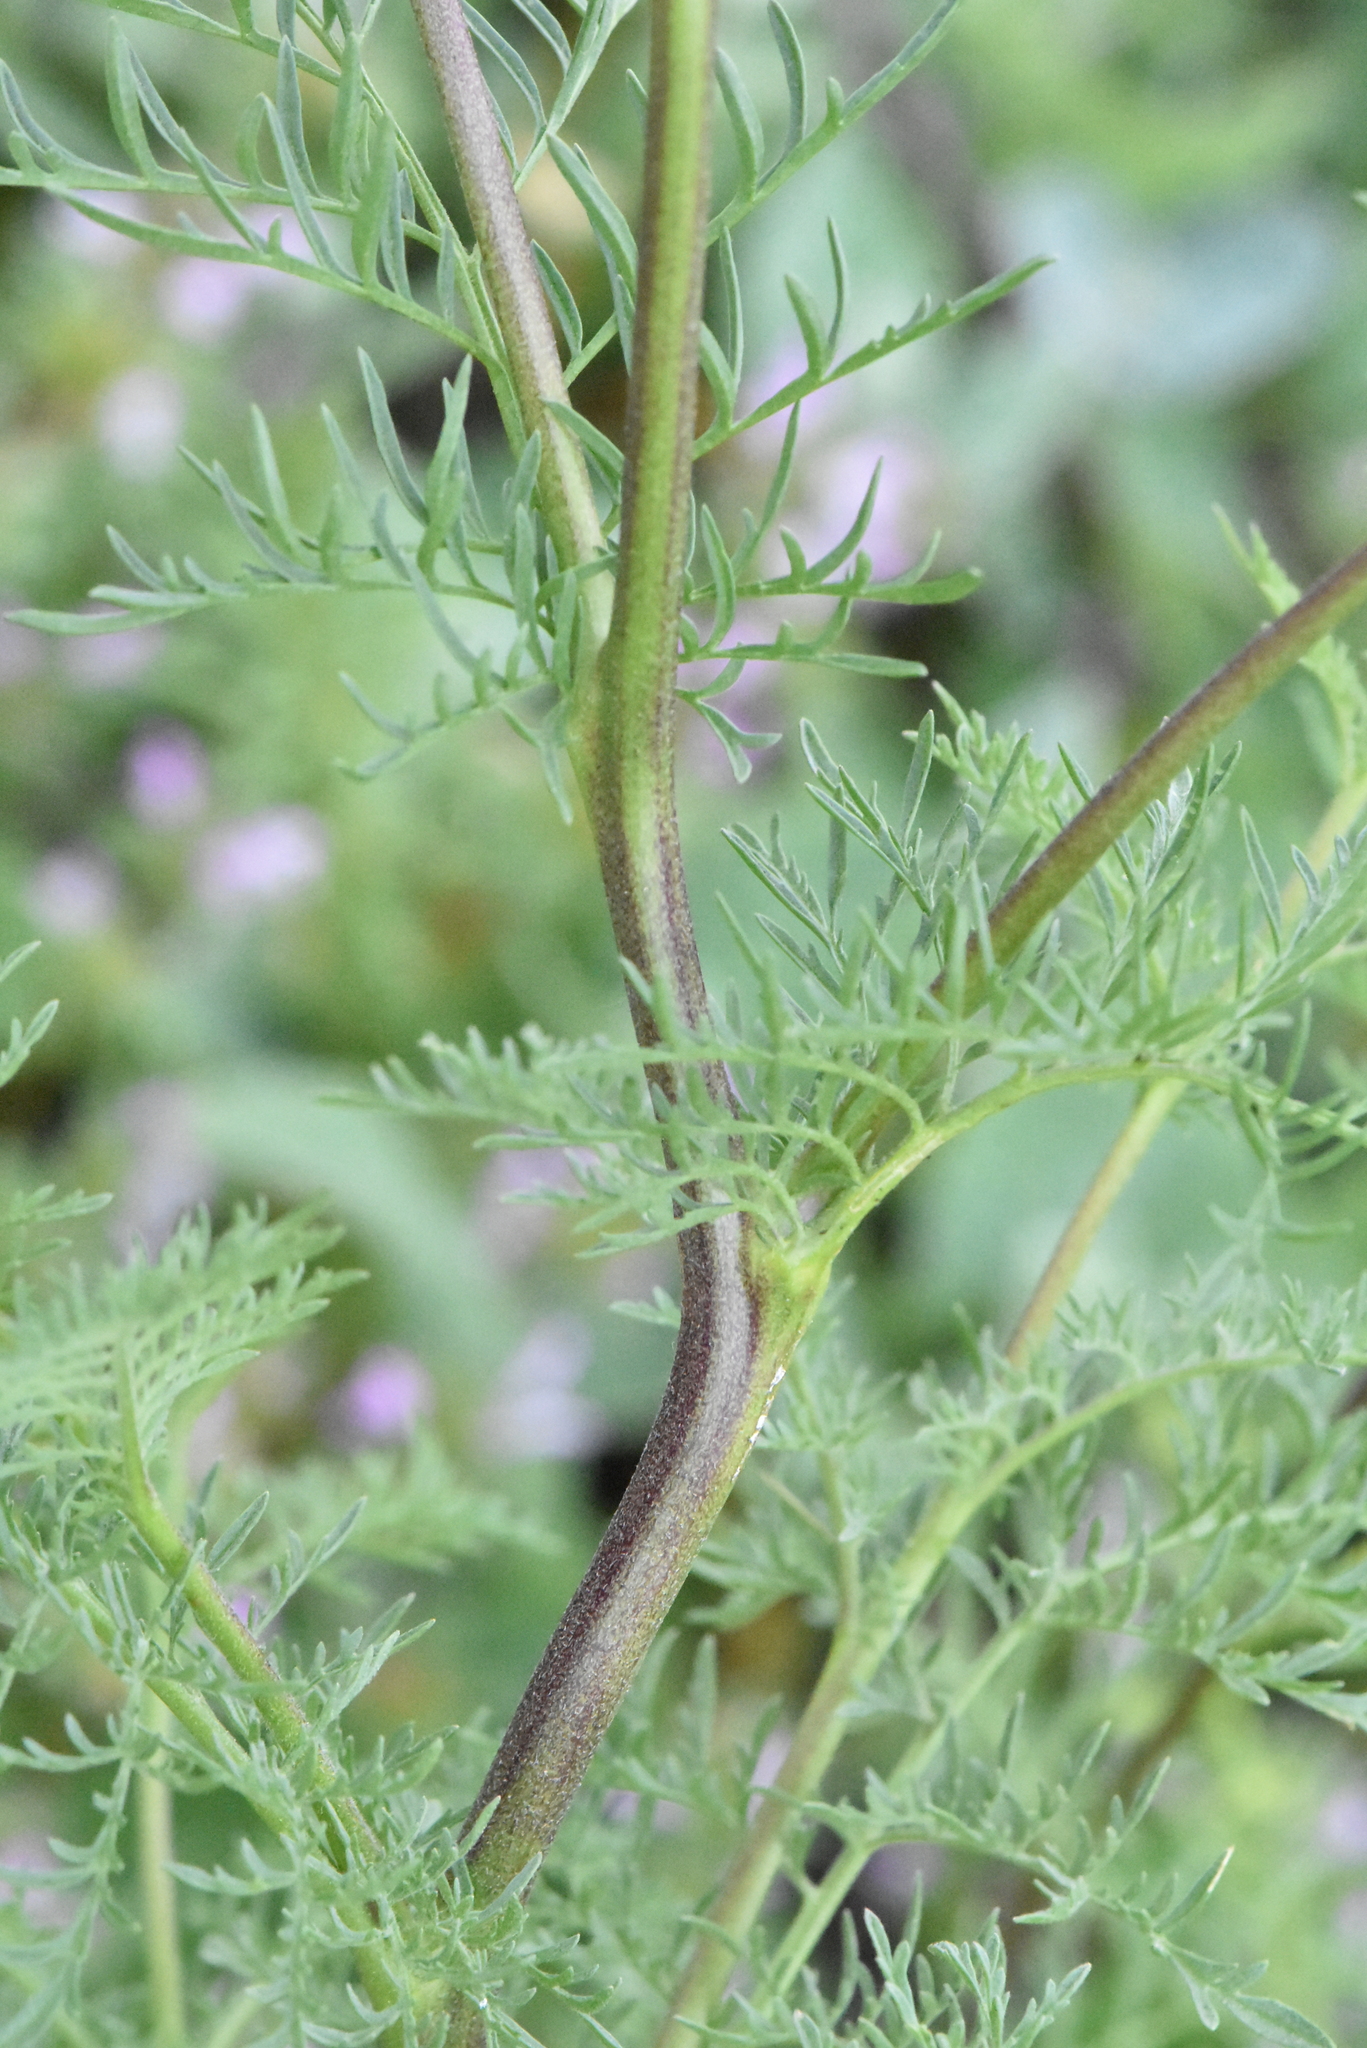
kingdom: Plantae
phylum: Tracheophyta
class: Magnoliopsida
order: Brassicales
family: Brassicaceae
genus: Descurainia
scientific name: Descurainia sophia
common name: Flixweed
